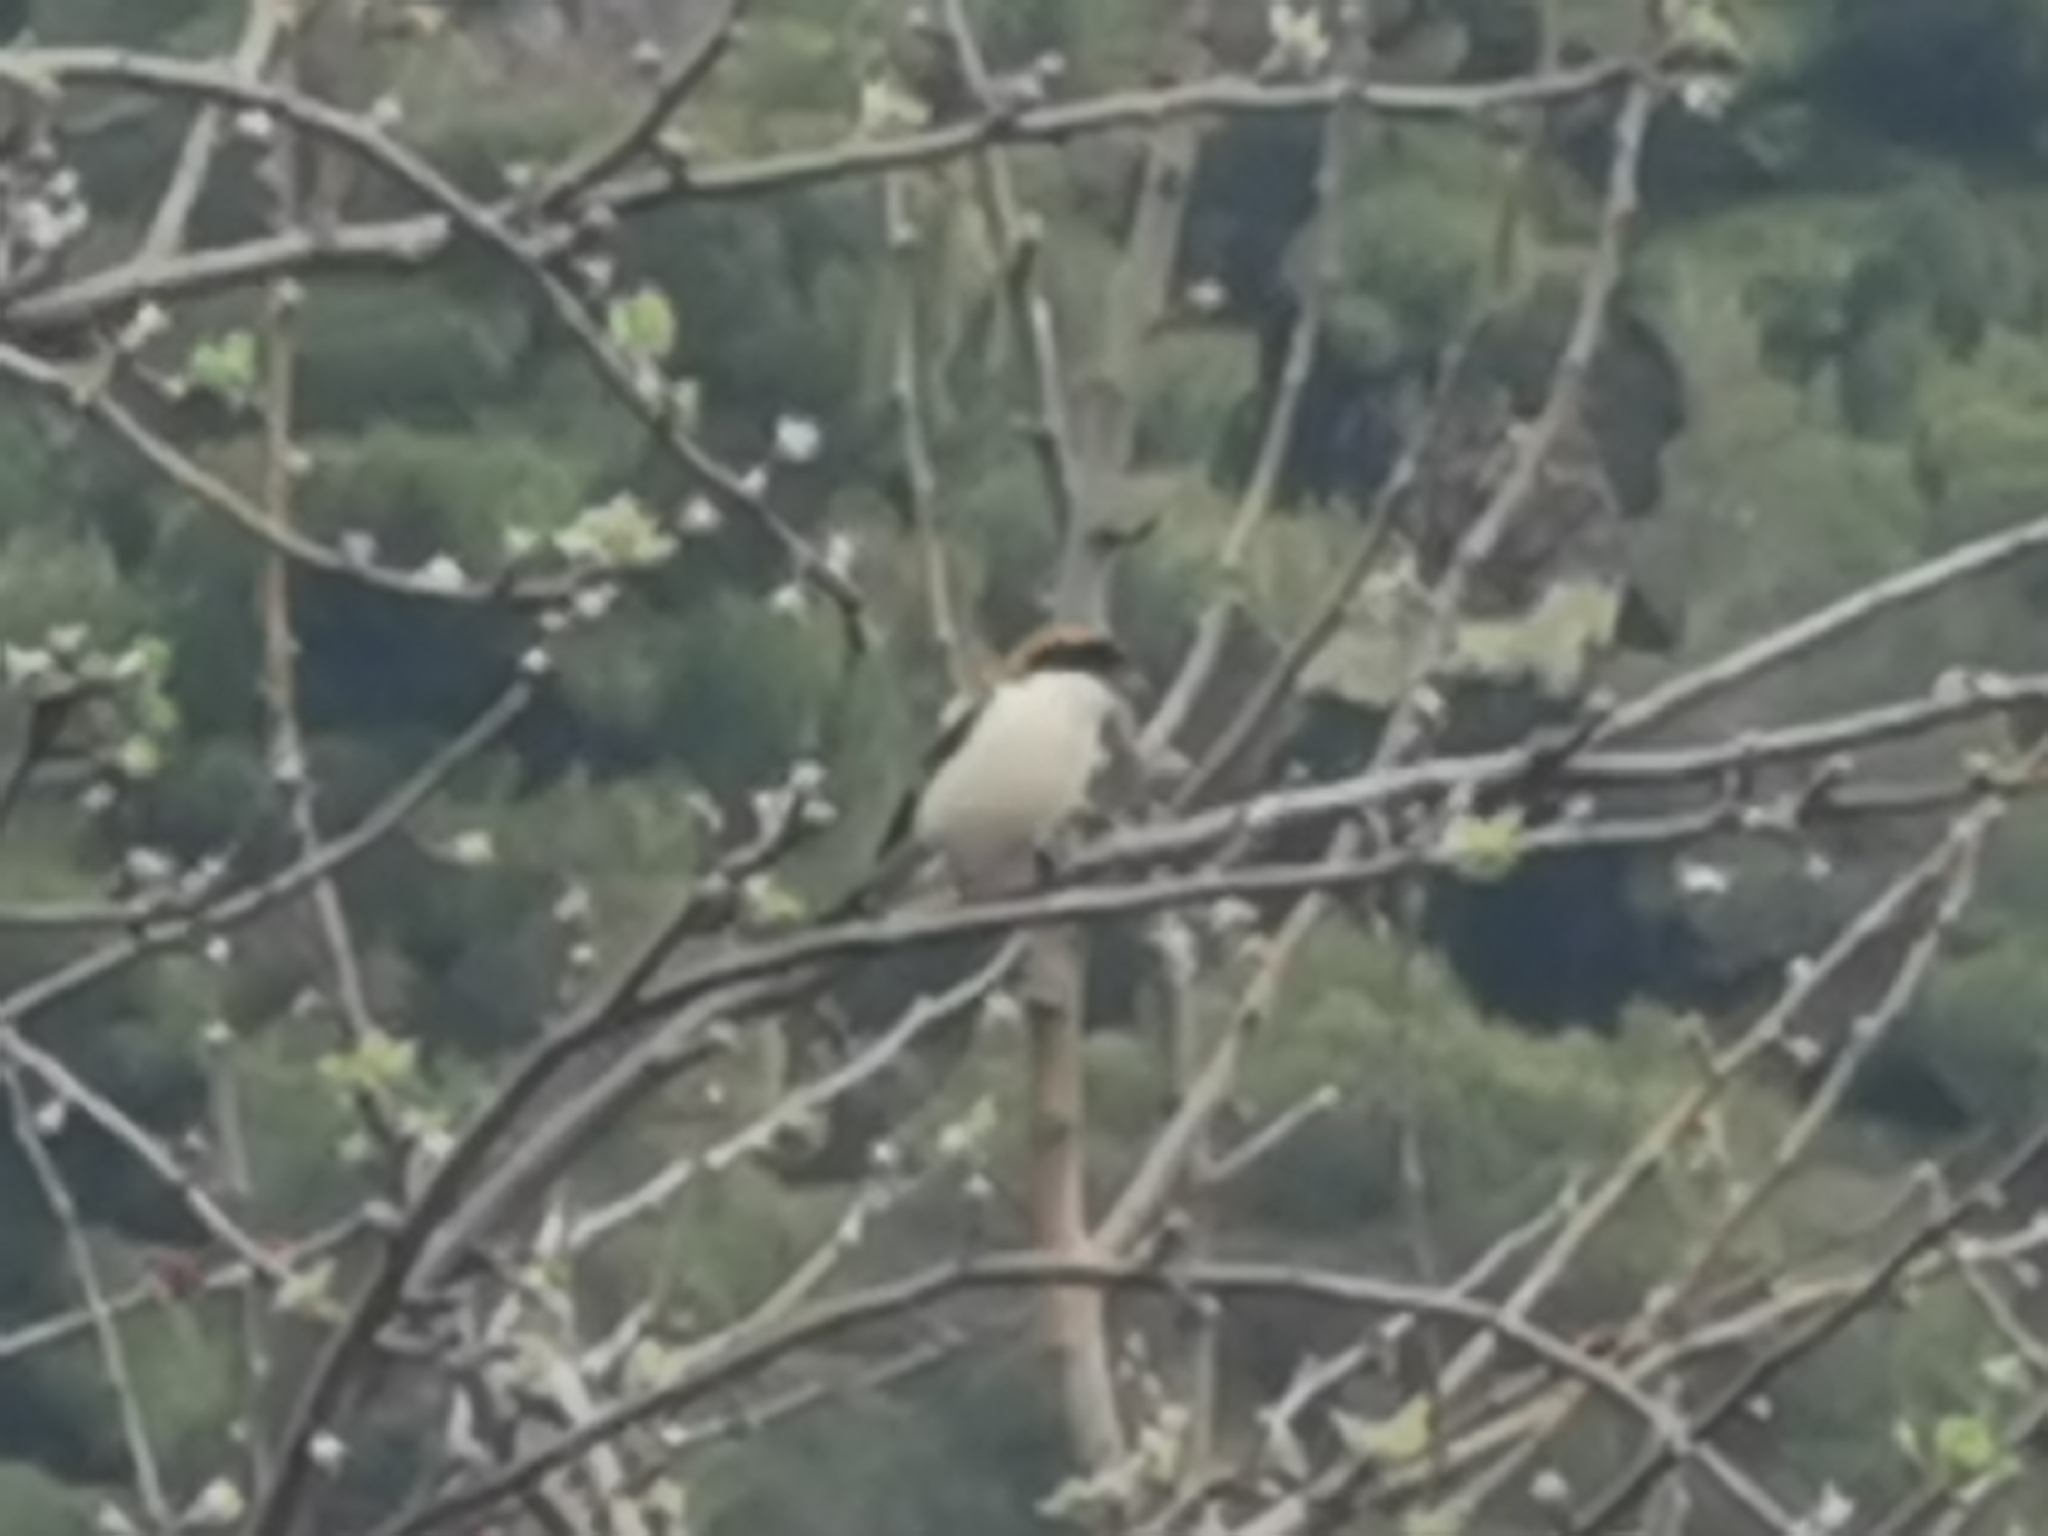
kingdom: Animalia
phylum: Chordata
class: Aves
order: Passeriformes
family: Laniidae
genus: Lanius
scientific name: Lanius senator
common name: Woodchat shrike
